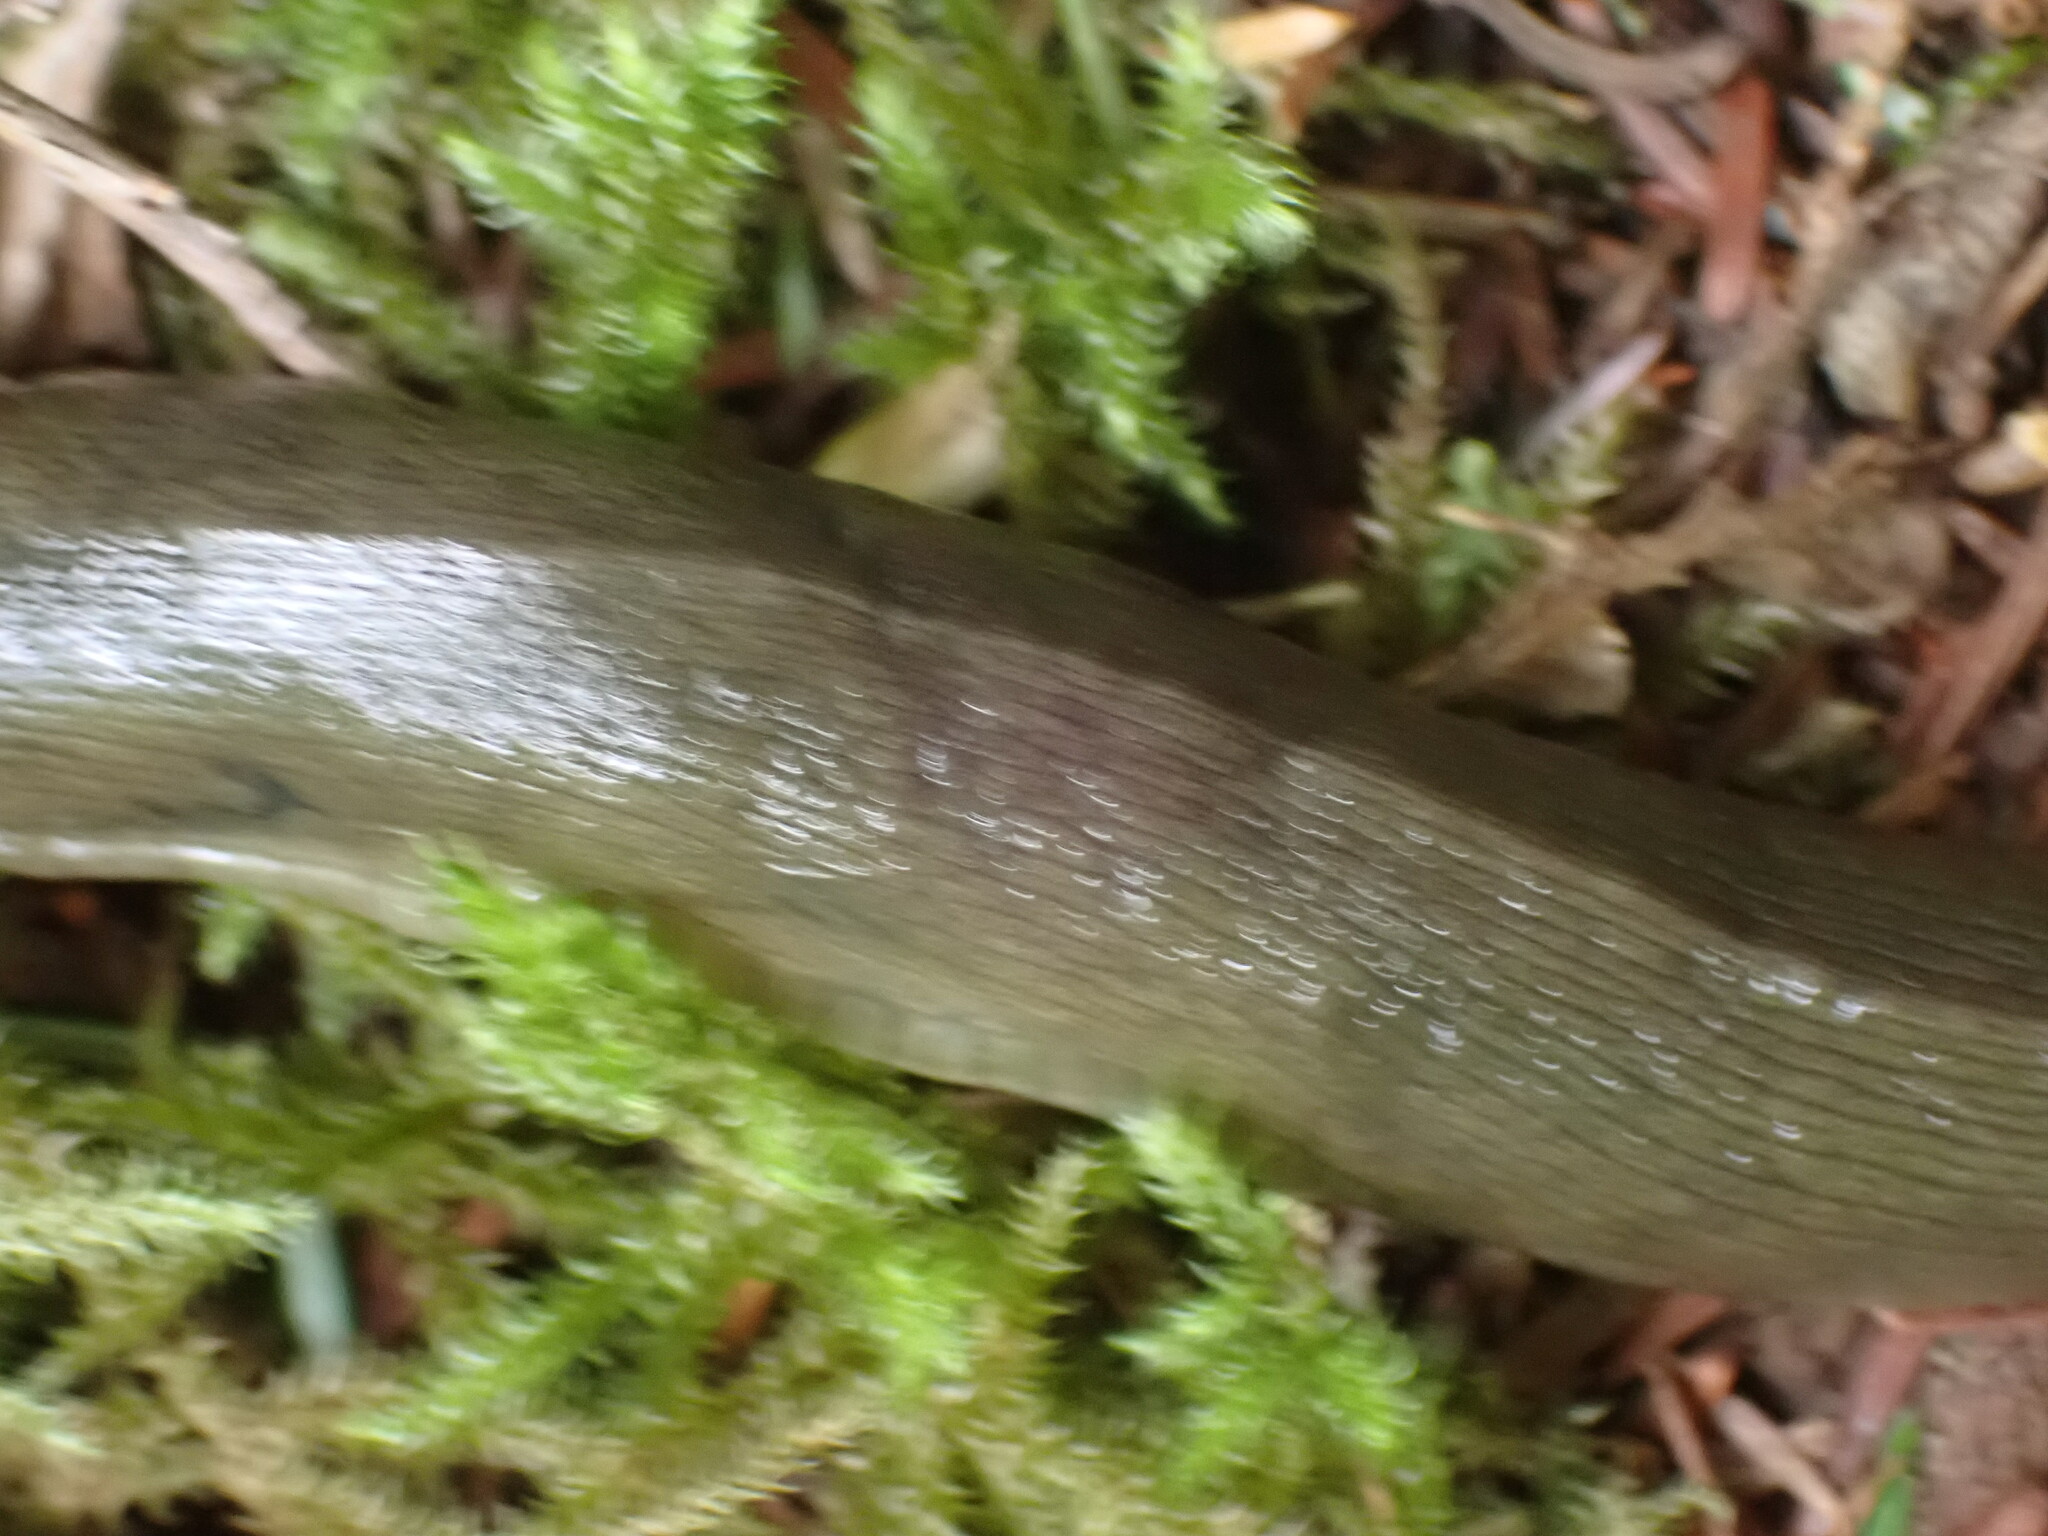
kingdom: Animalia
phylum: Mollusca
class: Gastropoda
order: Stylommatophora
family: Ariolimacidae
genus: Ariolimax
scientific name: Ariolimax columbianus
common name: Pacific banana slug
